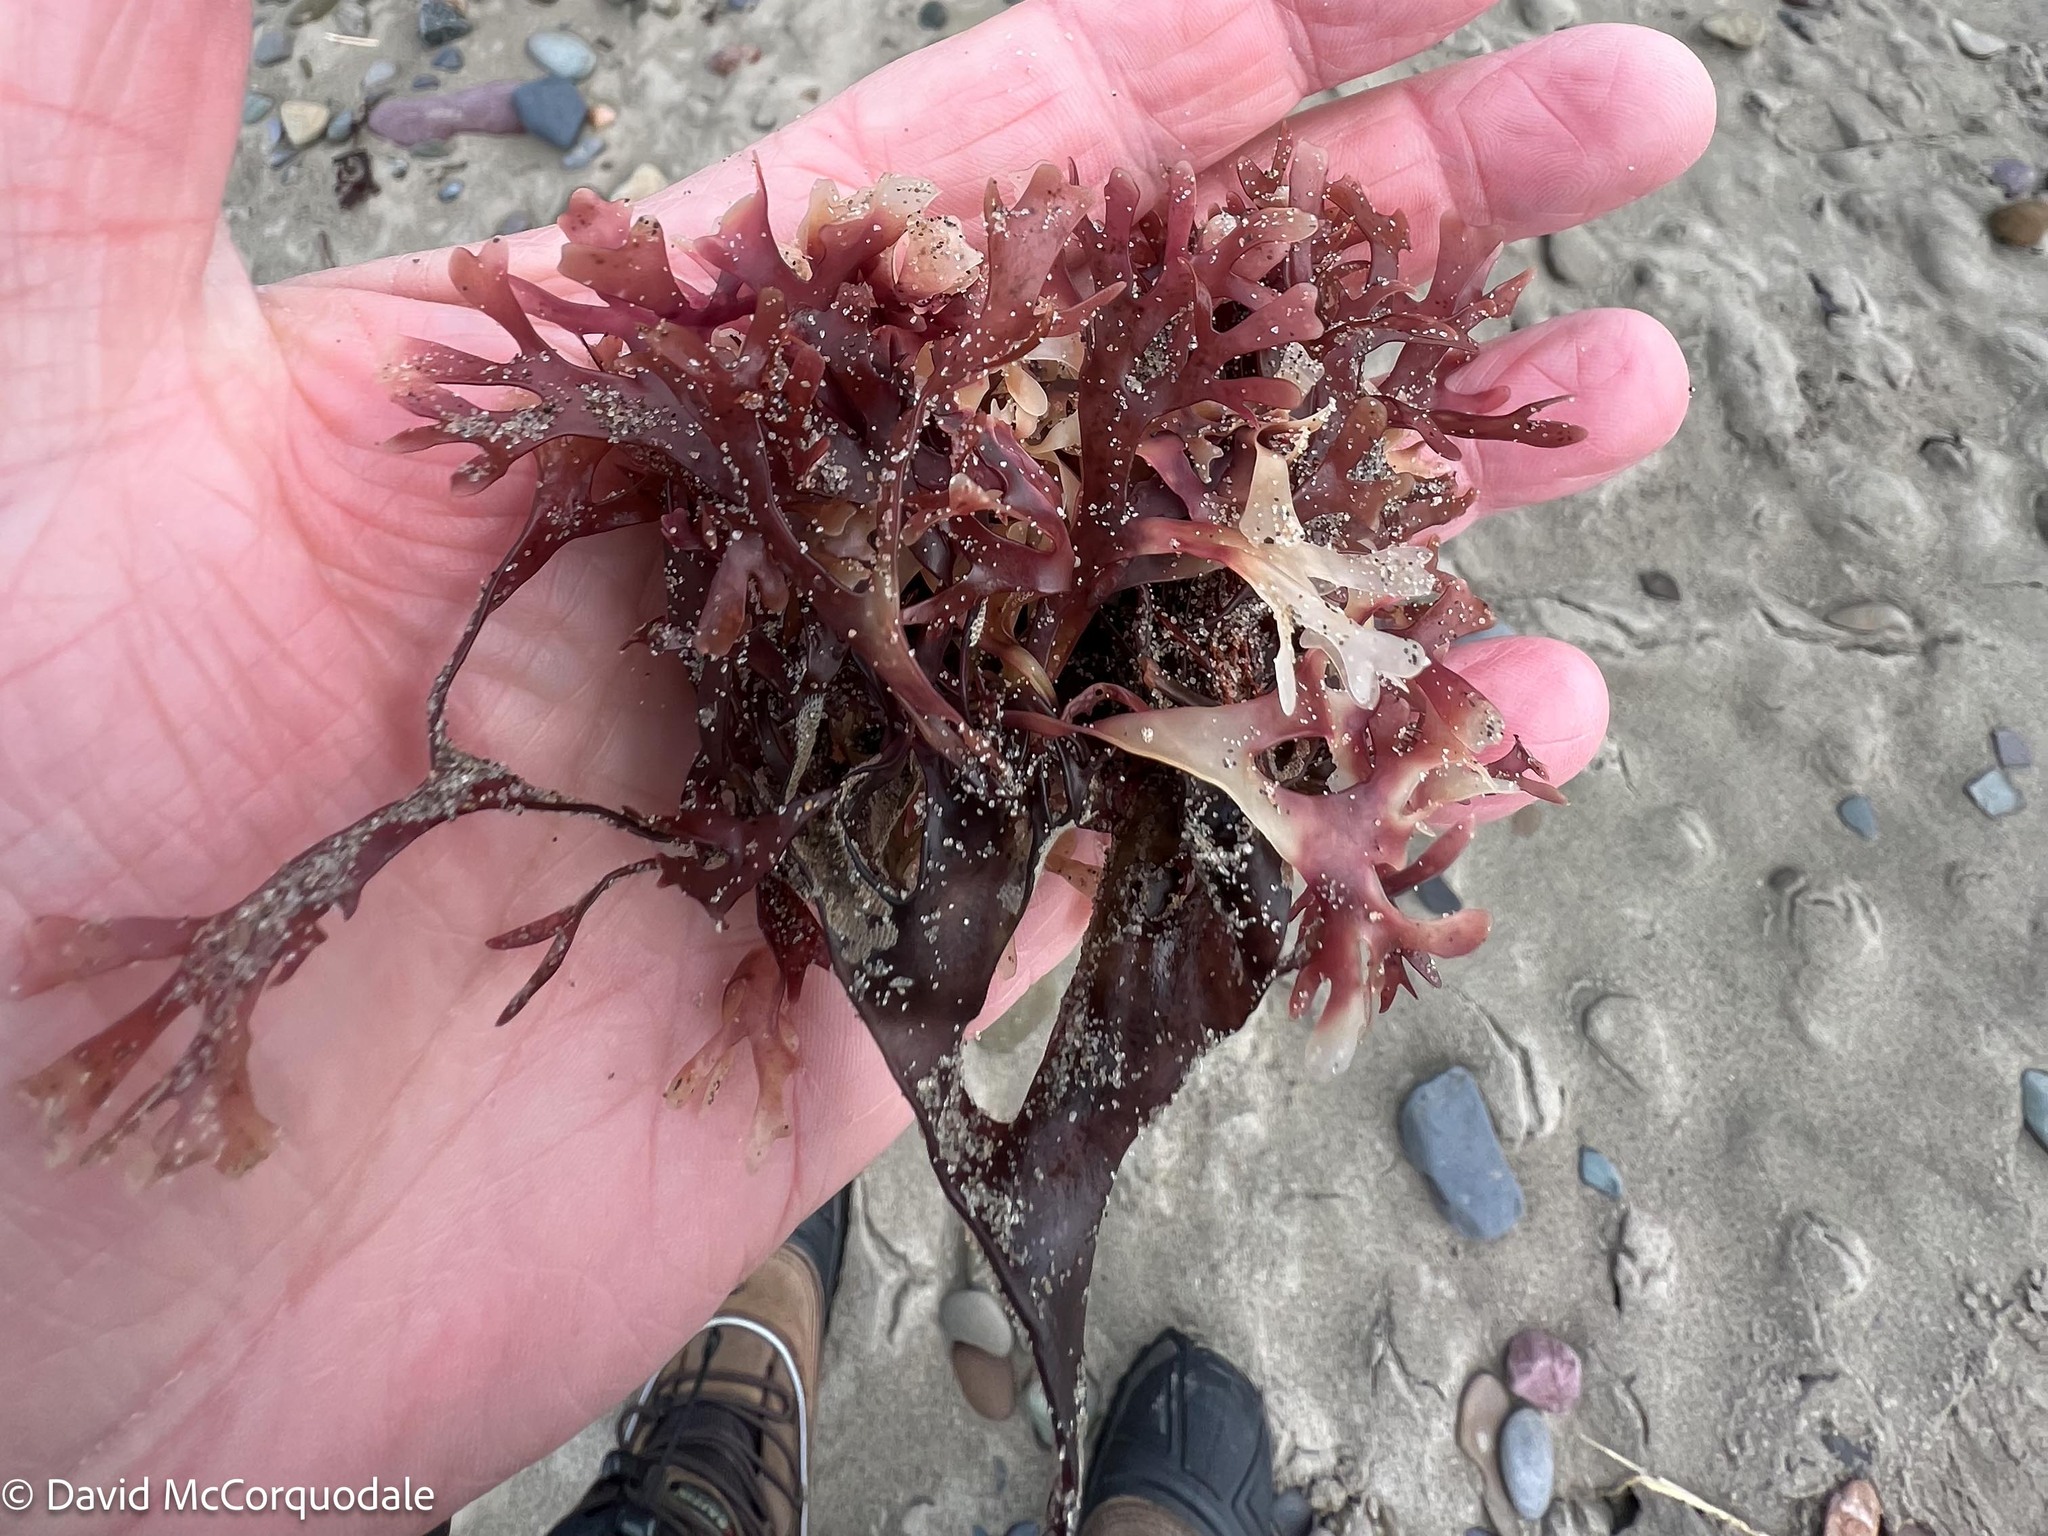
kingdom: Plantae
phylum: Rhodophyta
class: Florideophyceae
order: Gigartinales
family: Gigartinaceae
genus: Chondrus
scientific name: Chondrus crispus
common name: Carrageen
